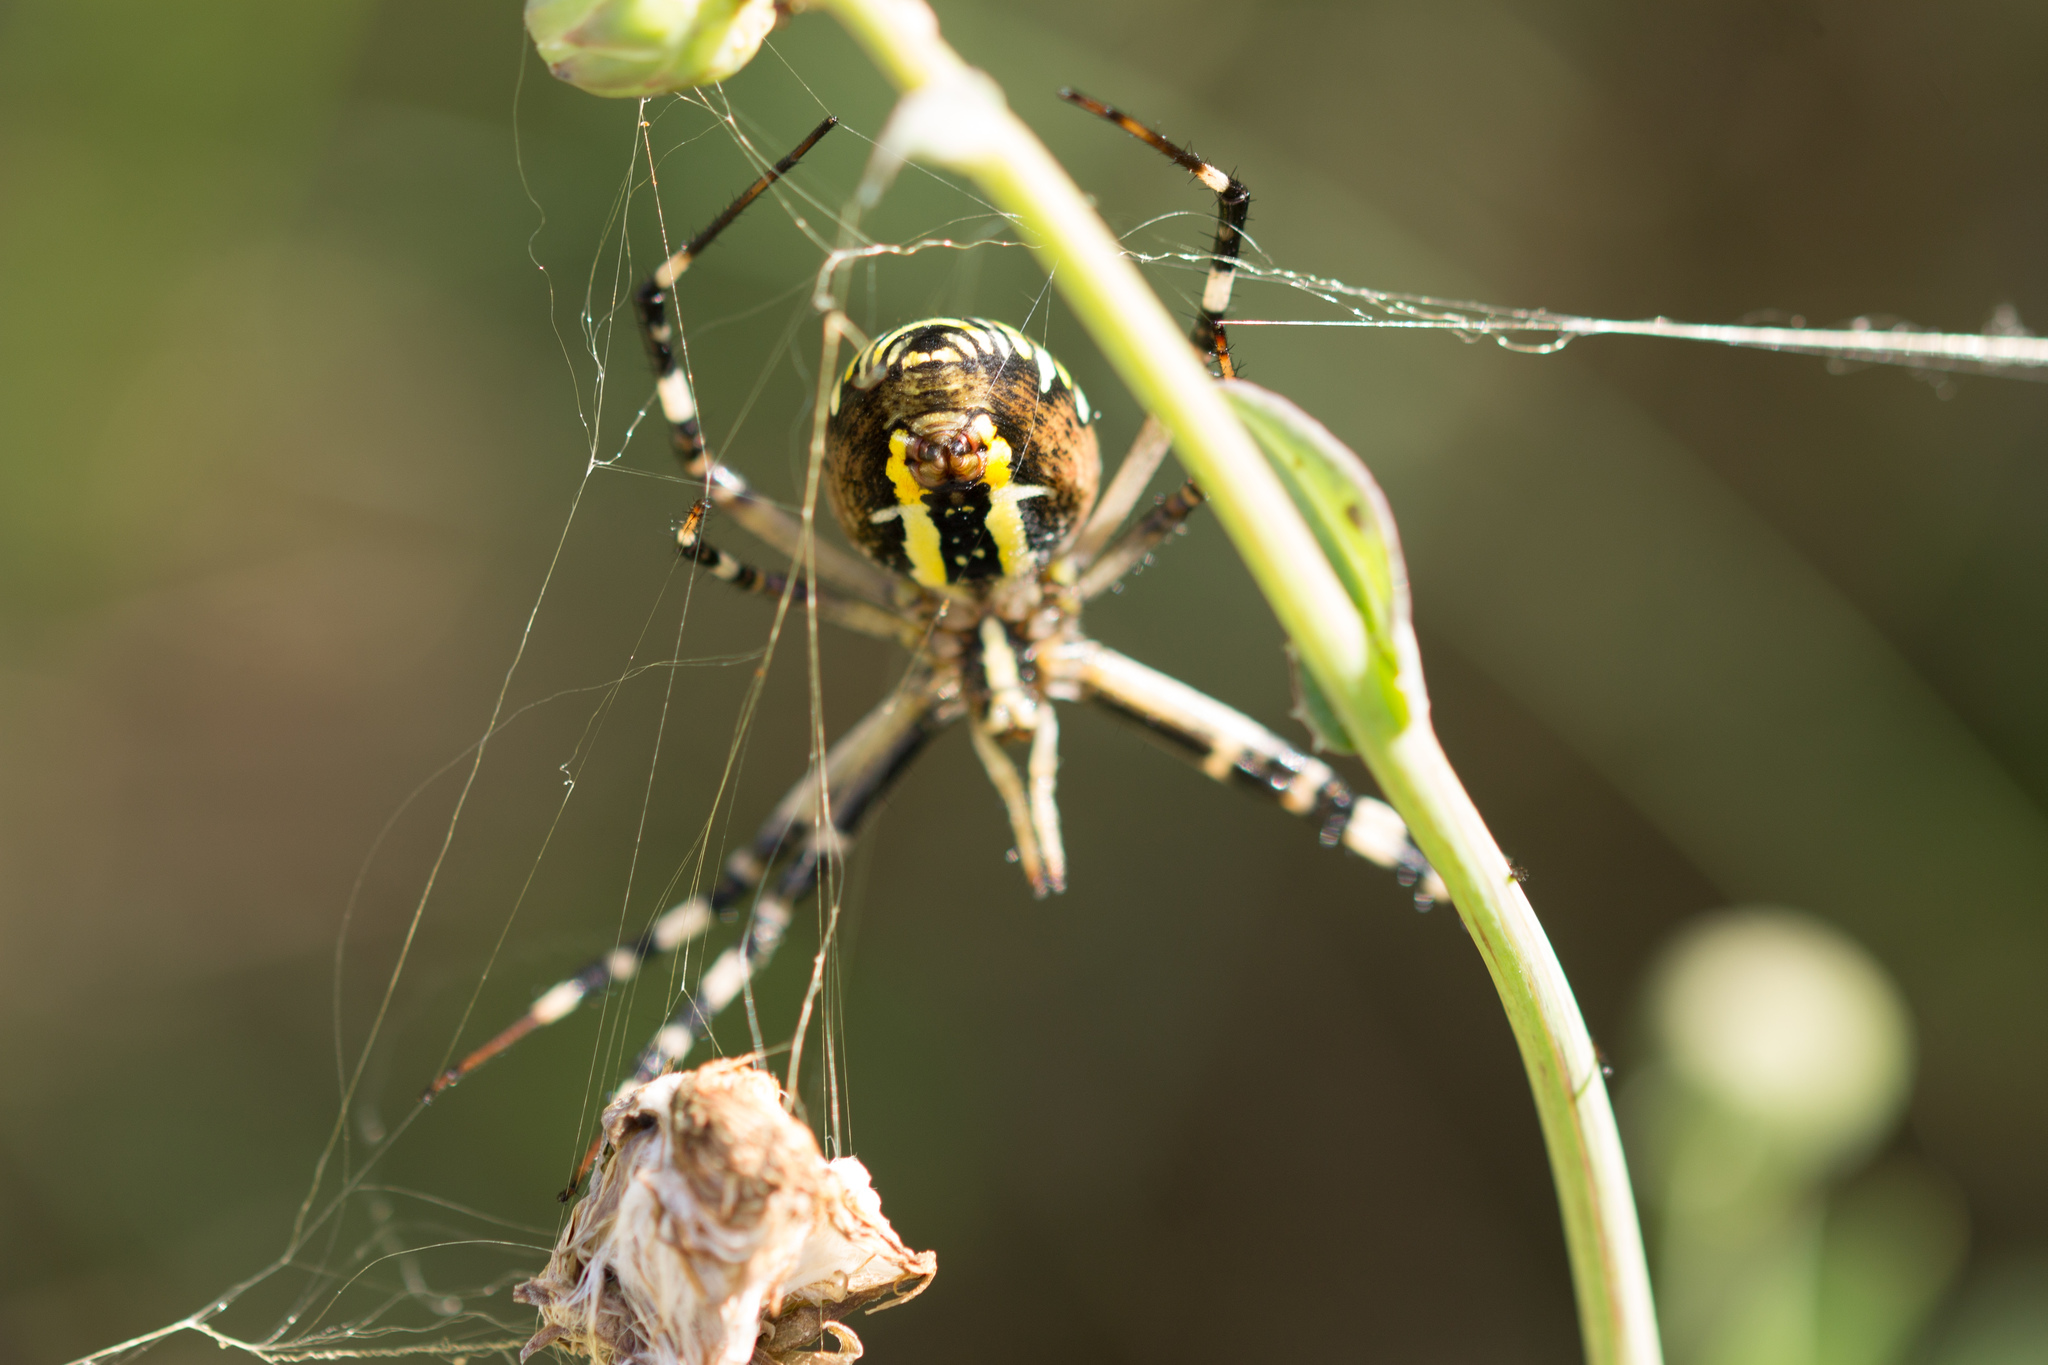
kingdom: Animalia
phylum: Arthropoda
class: Arachnida
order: Araneae
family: Araneidae
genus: Argiope
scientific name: Argiope bruennichi
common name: Wasp spider
